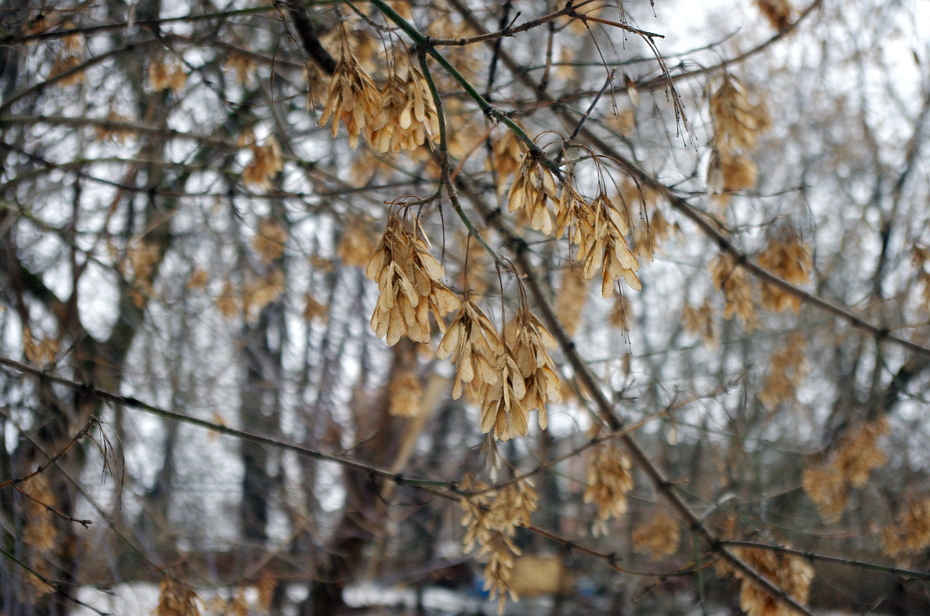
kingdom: Plantae
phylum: Tracheophyta
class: Magnoliopsida
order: Sapindales
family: Sapindaceae
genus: Acer
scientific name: Acer negundo
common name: Ashleaf maple
